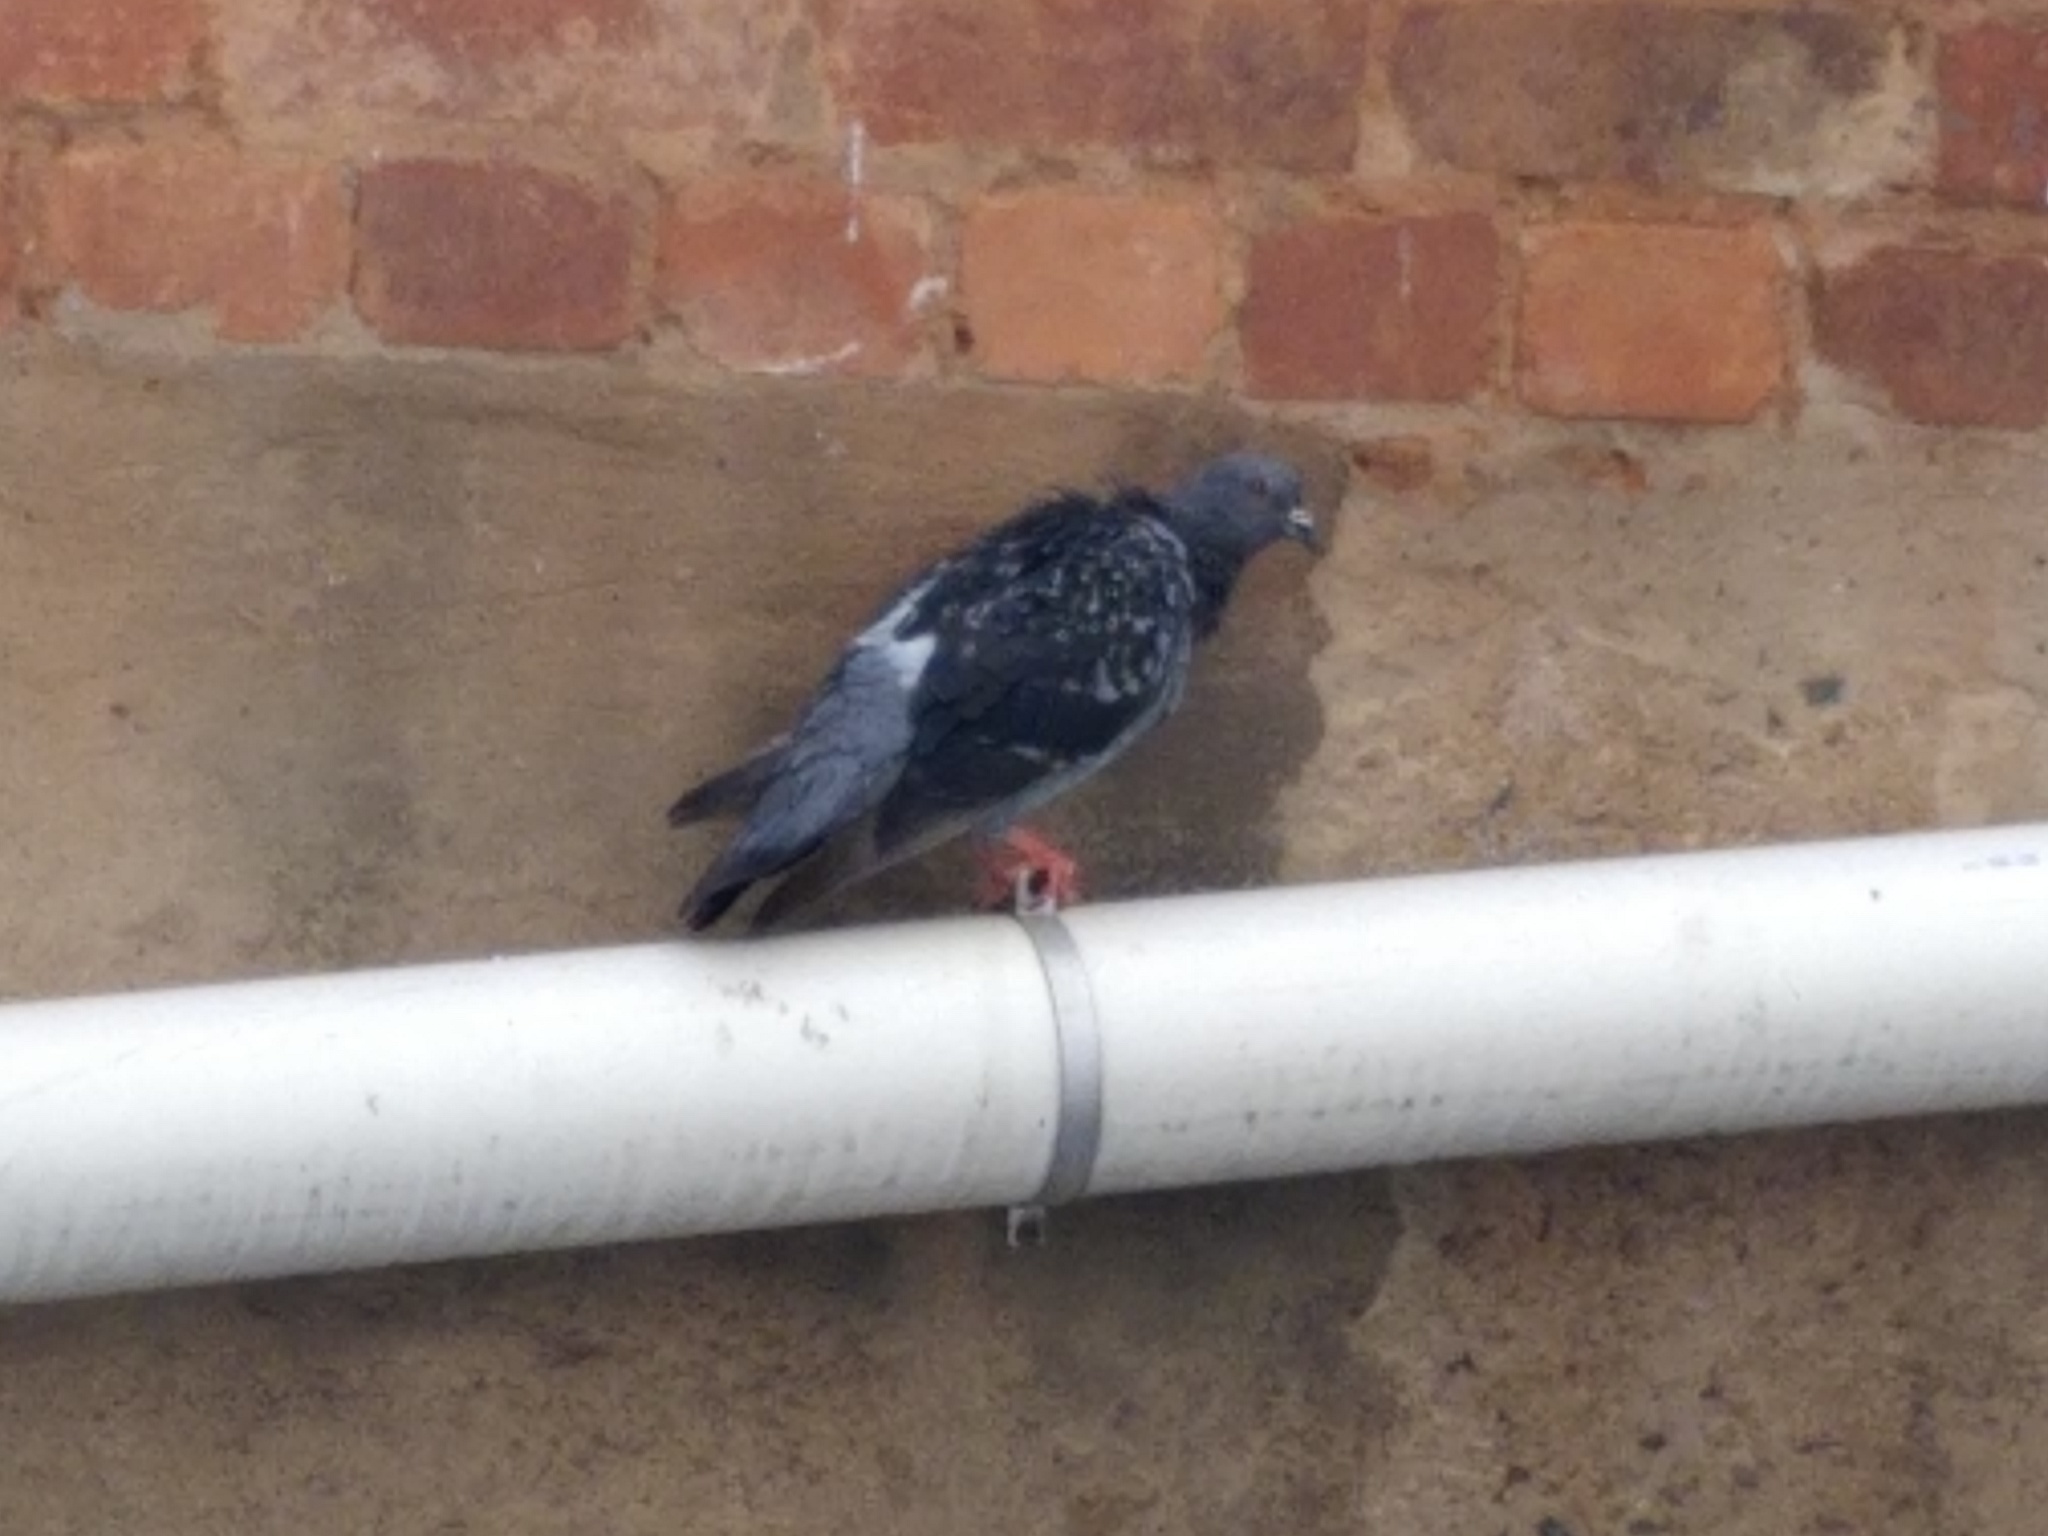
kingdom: Animalia
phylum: Chordata
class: Aves
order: Columbiformes
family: Columbidae
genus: Columba
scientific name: Columba livia
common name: Rock pigeon
